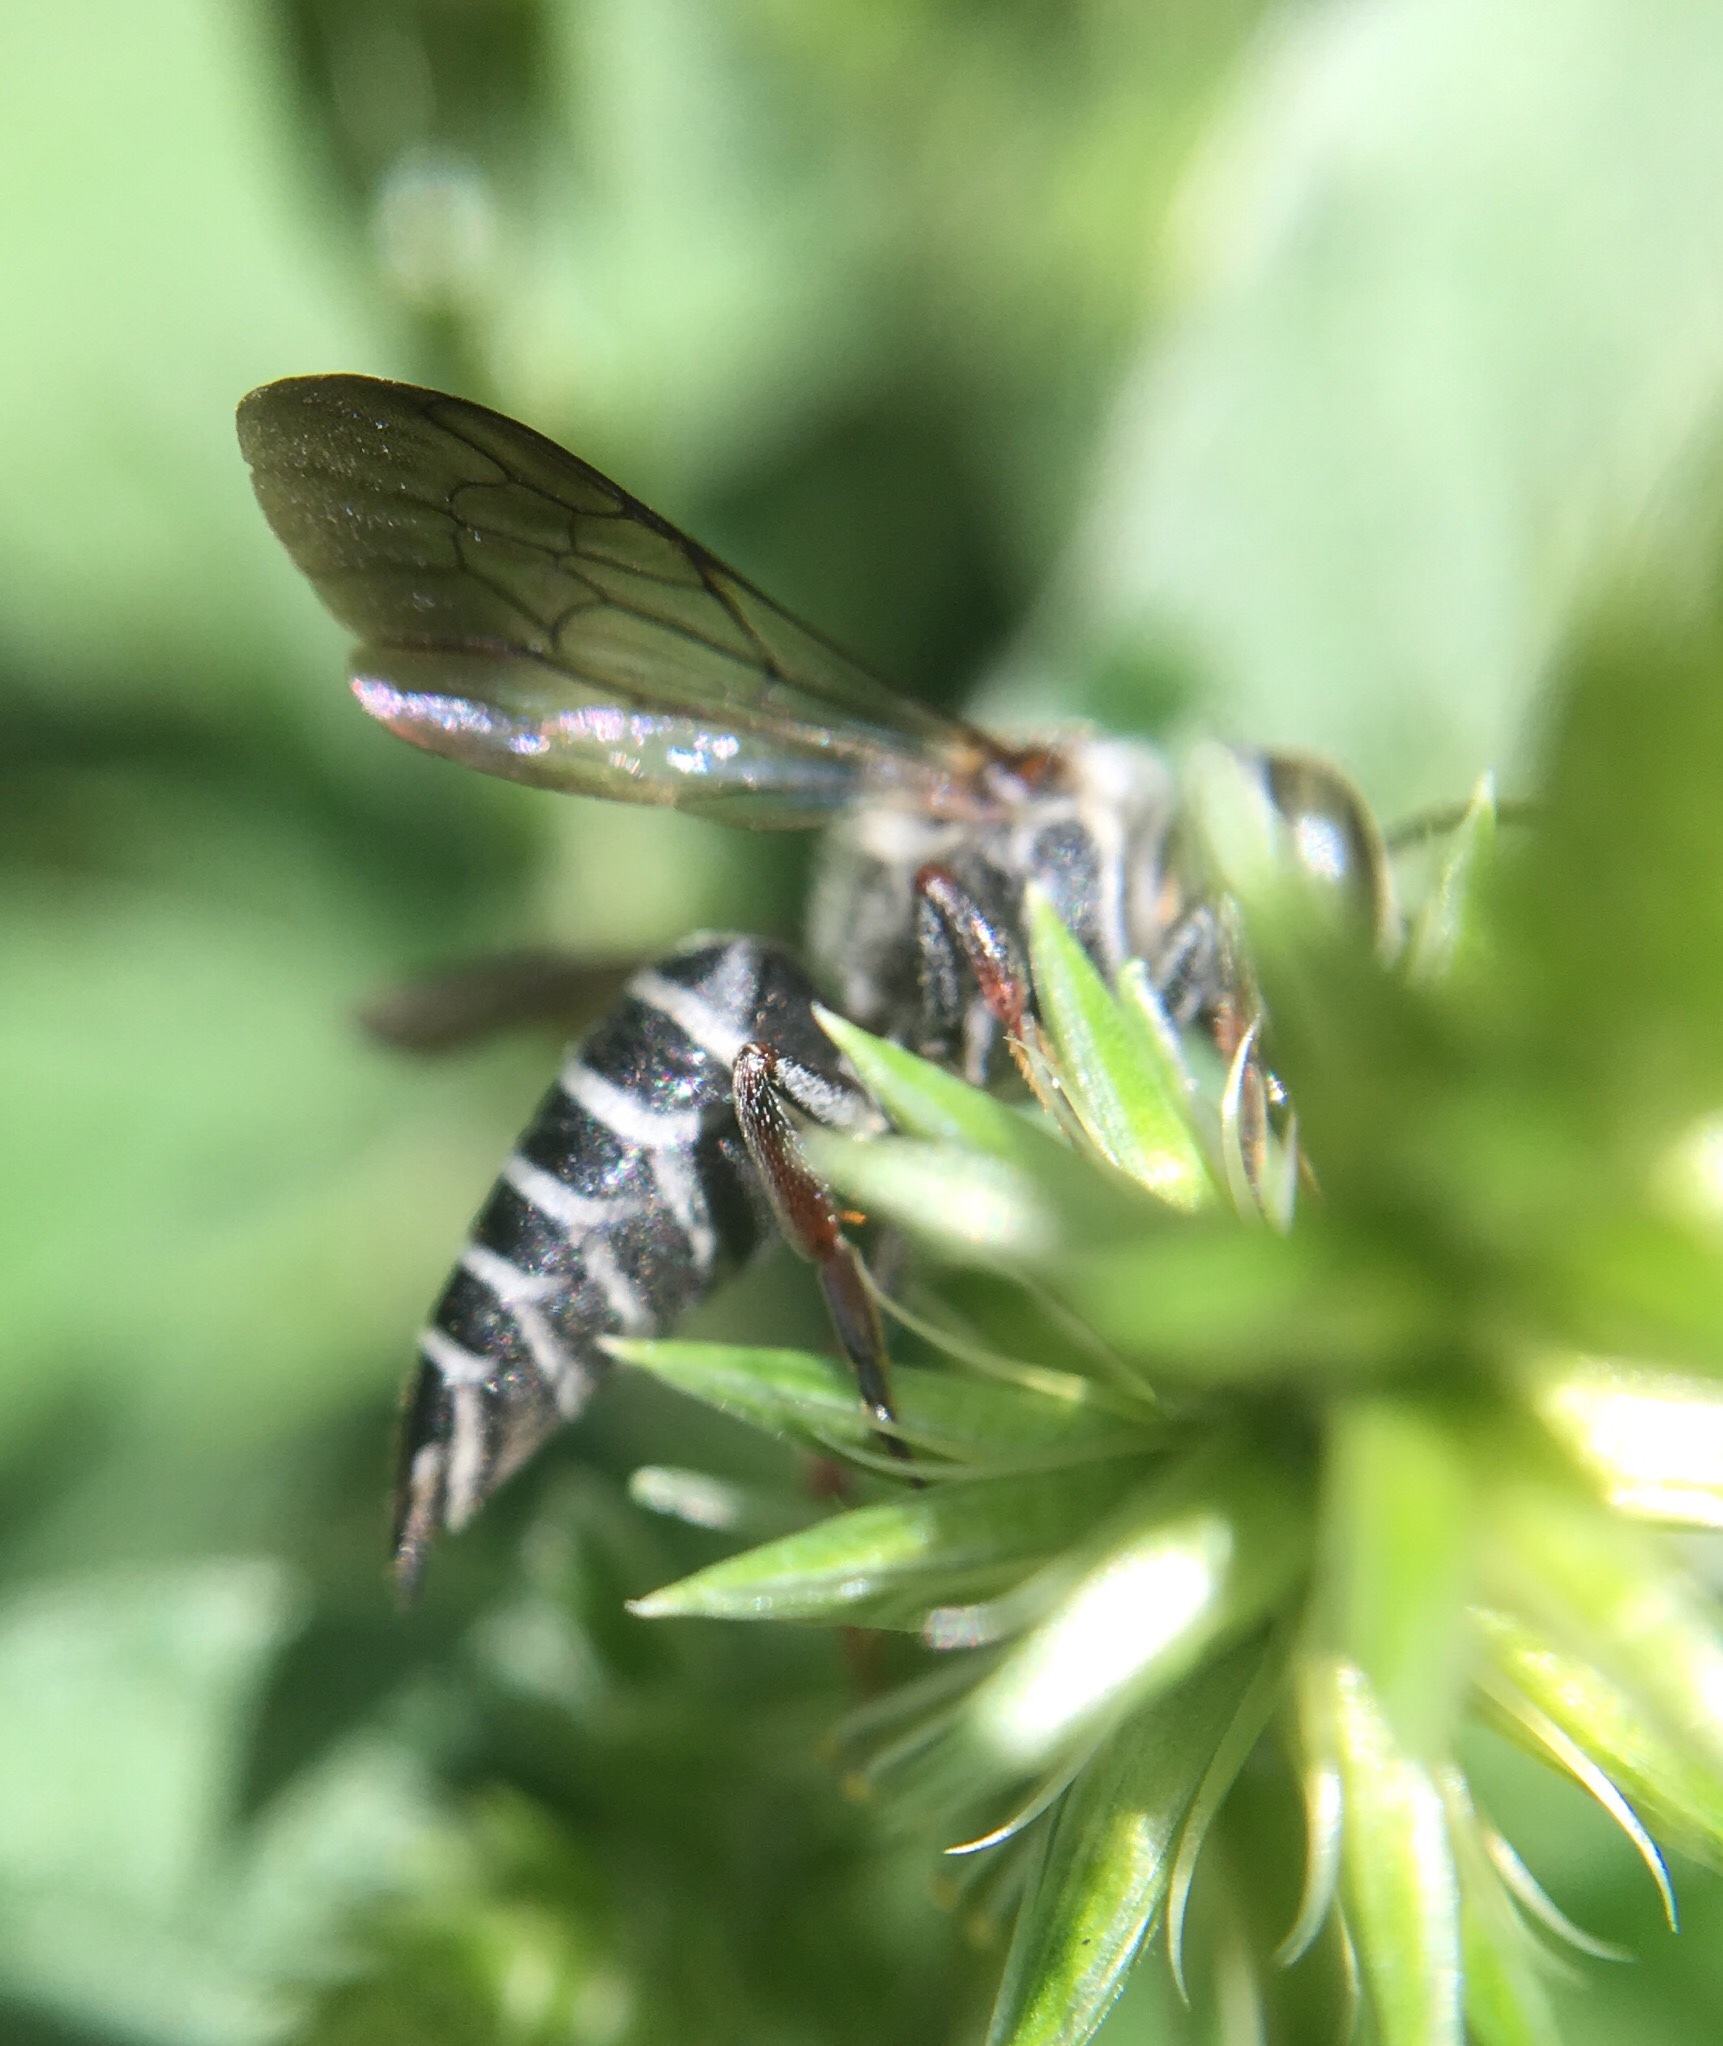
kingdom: Animalia
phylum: Arthropoda
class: Insecta
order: Hymenoptera
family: Megachilidae
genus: Coelioxys
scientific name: Coelioxys sayi
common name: Say's cuckoo leaf-cutter bee
